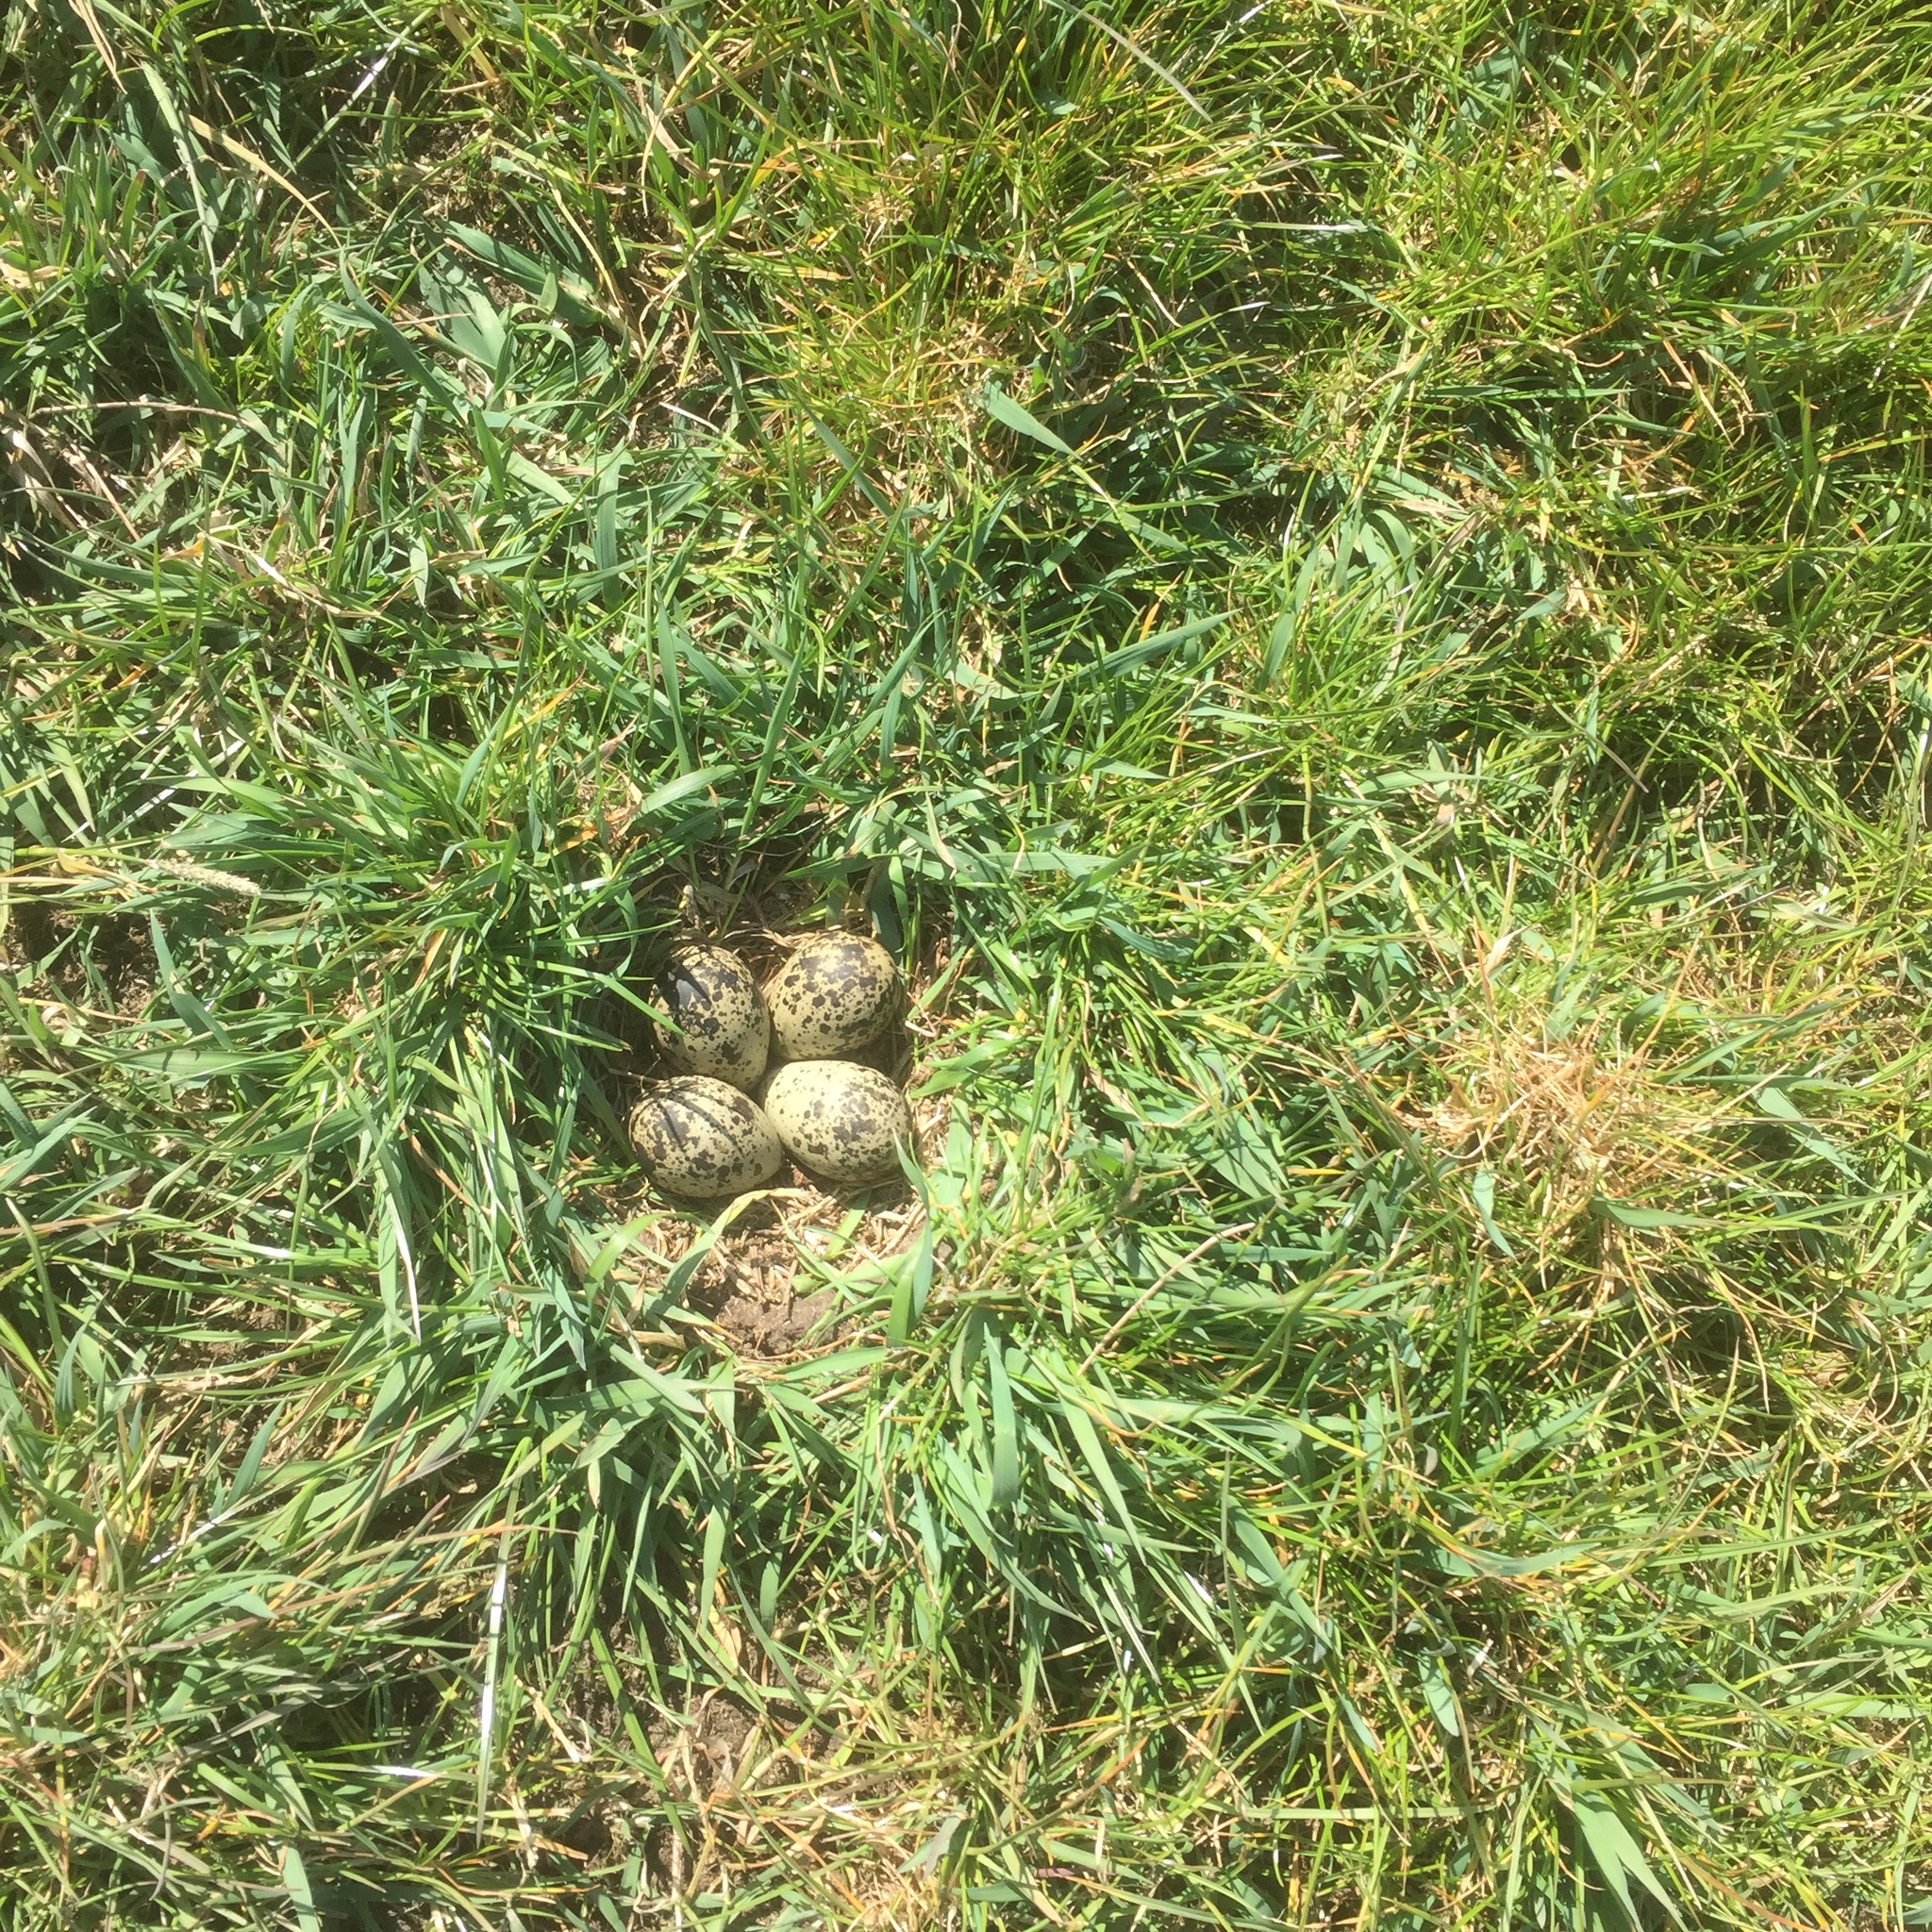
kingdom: Animalia
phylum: Chordata
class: Aves
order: Charadriiformes
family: Charadriidae
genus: Vanellus
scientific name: Vanellus vanellus
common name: Northern lapwing
